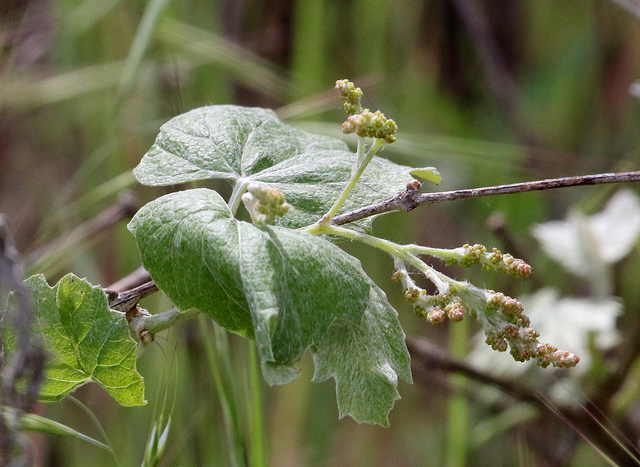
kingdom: Plantae
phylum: Tracheophyta
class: Magnoliopsida
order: Vitales
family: Vitaceae
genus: Vitis
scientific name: Vitis californica
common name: California wild grape
